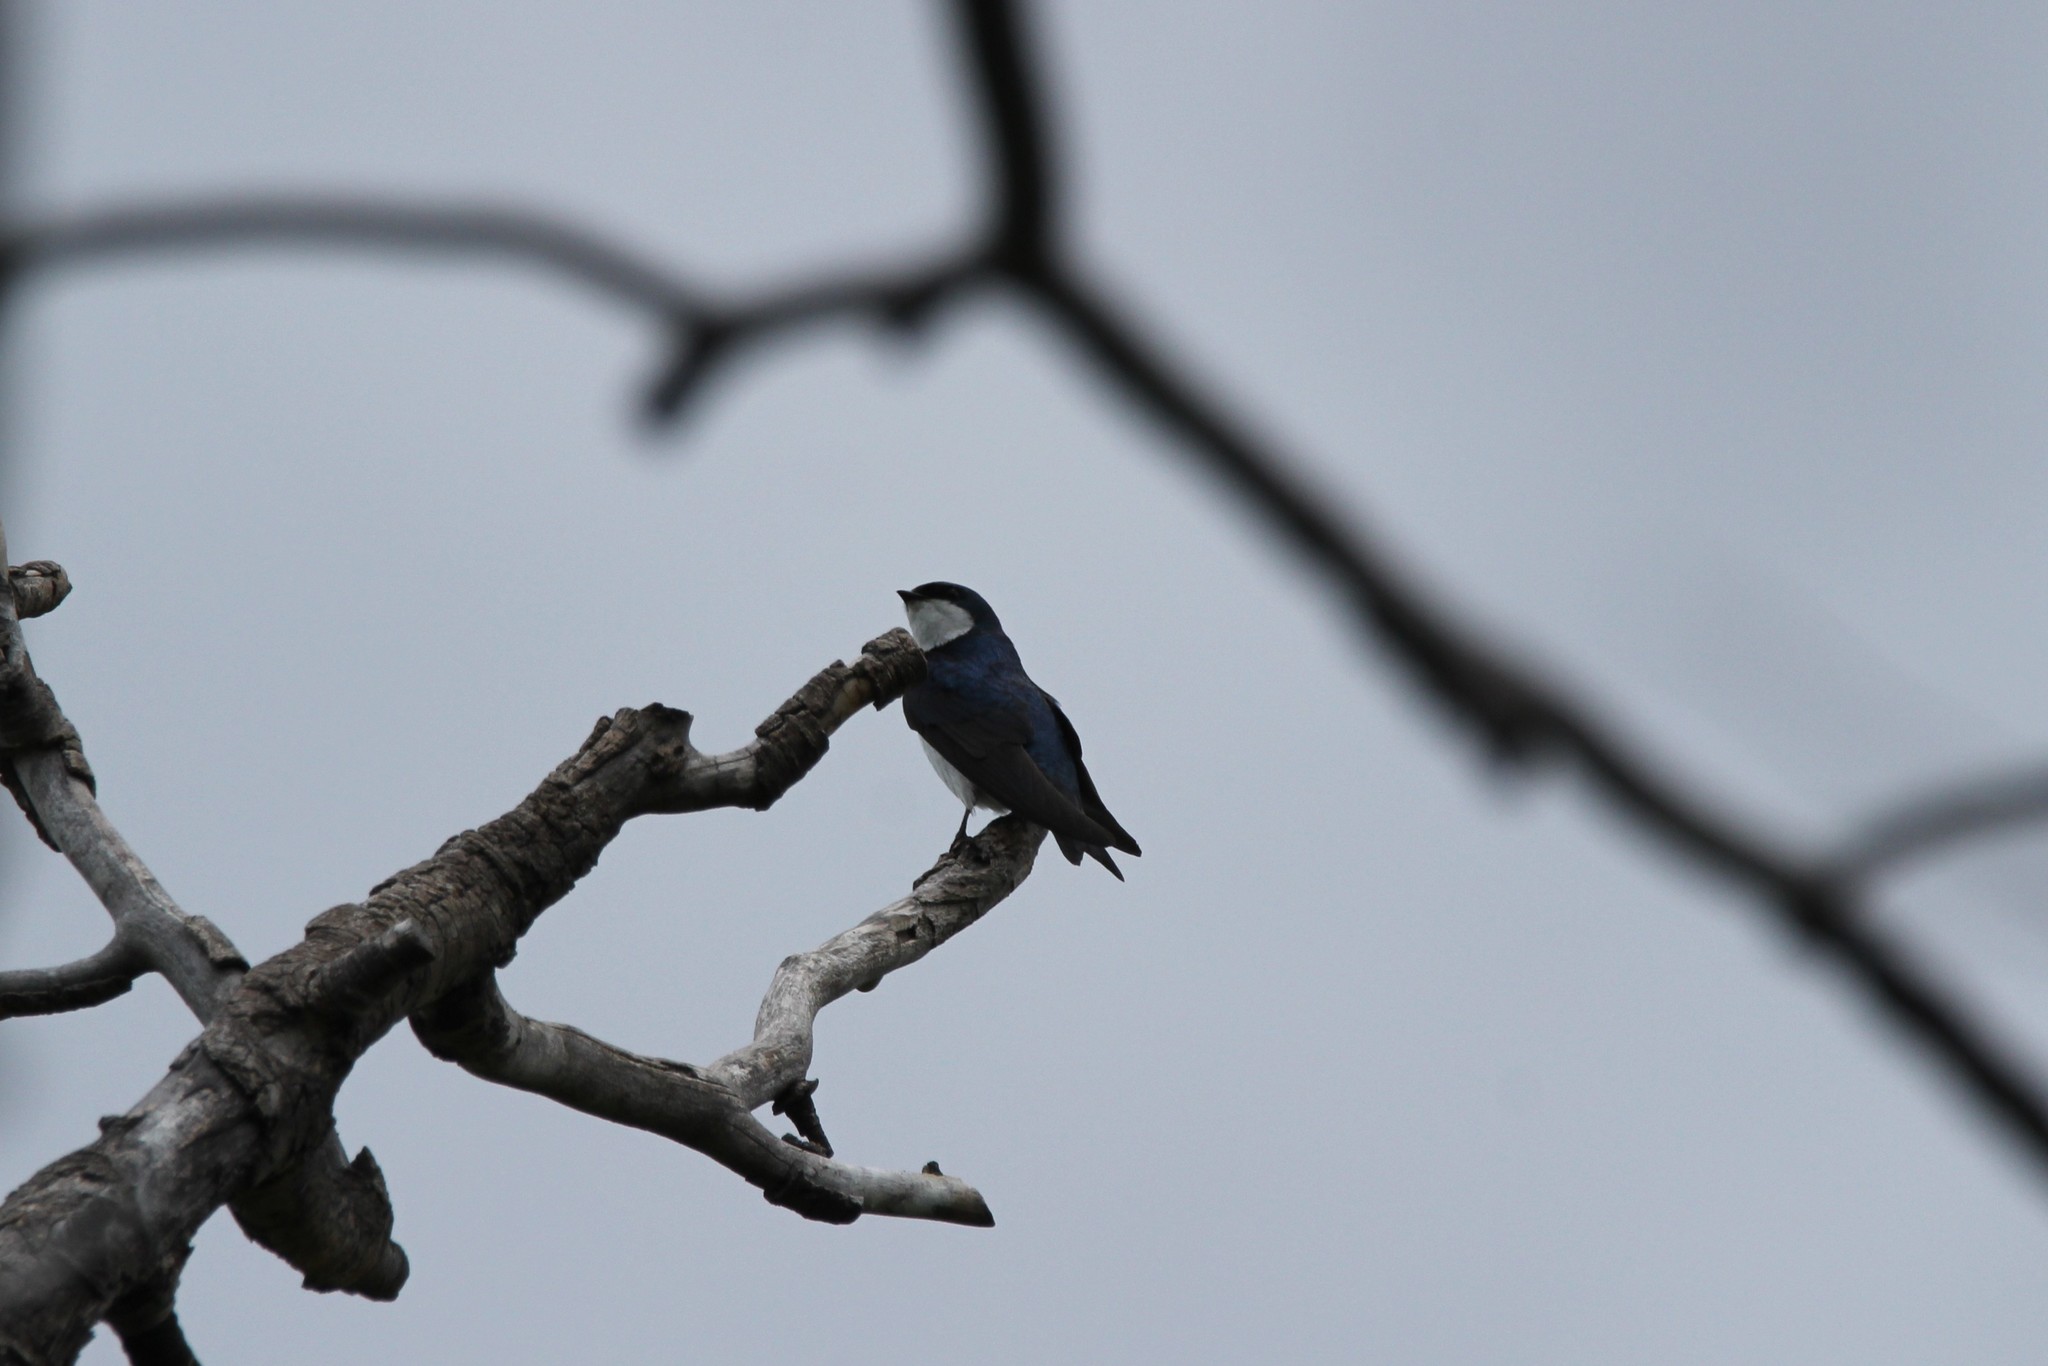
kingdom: Animalia
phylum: Chordata
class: Aves
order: Passeriformes
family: Hirundinidae
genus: Tachycineta
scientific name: Tachycineta bicolor
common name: Tree swallow
